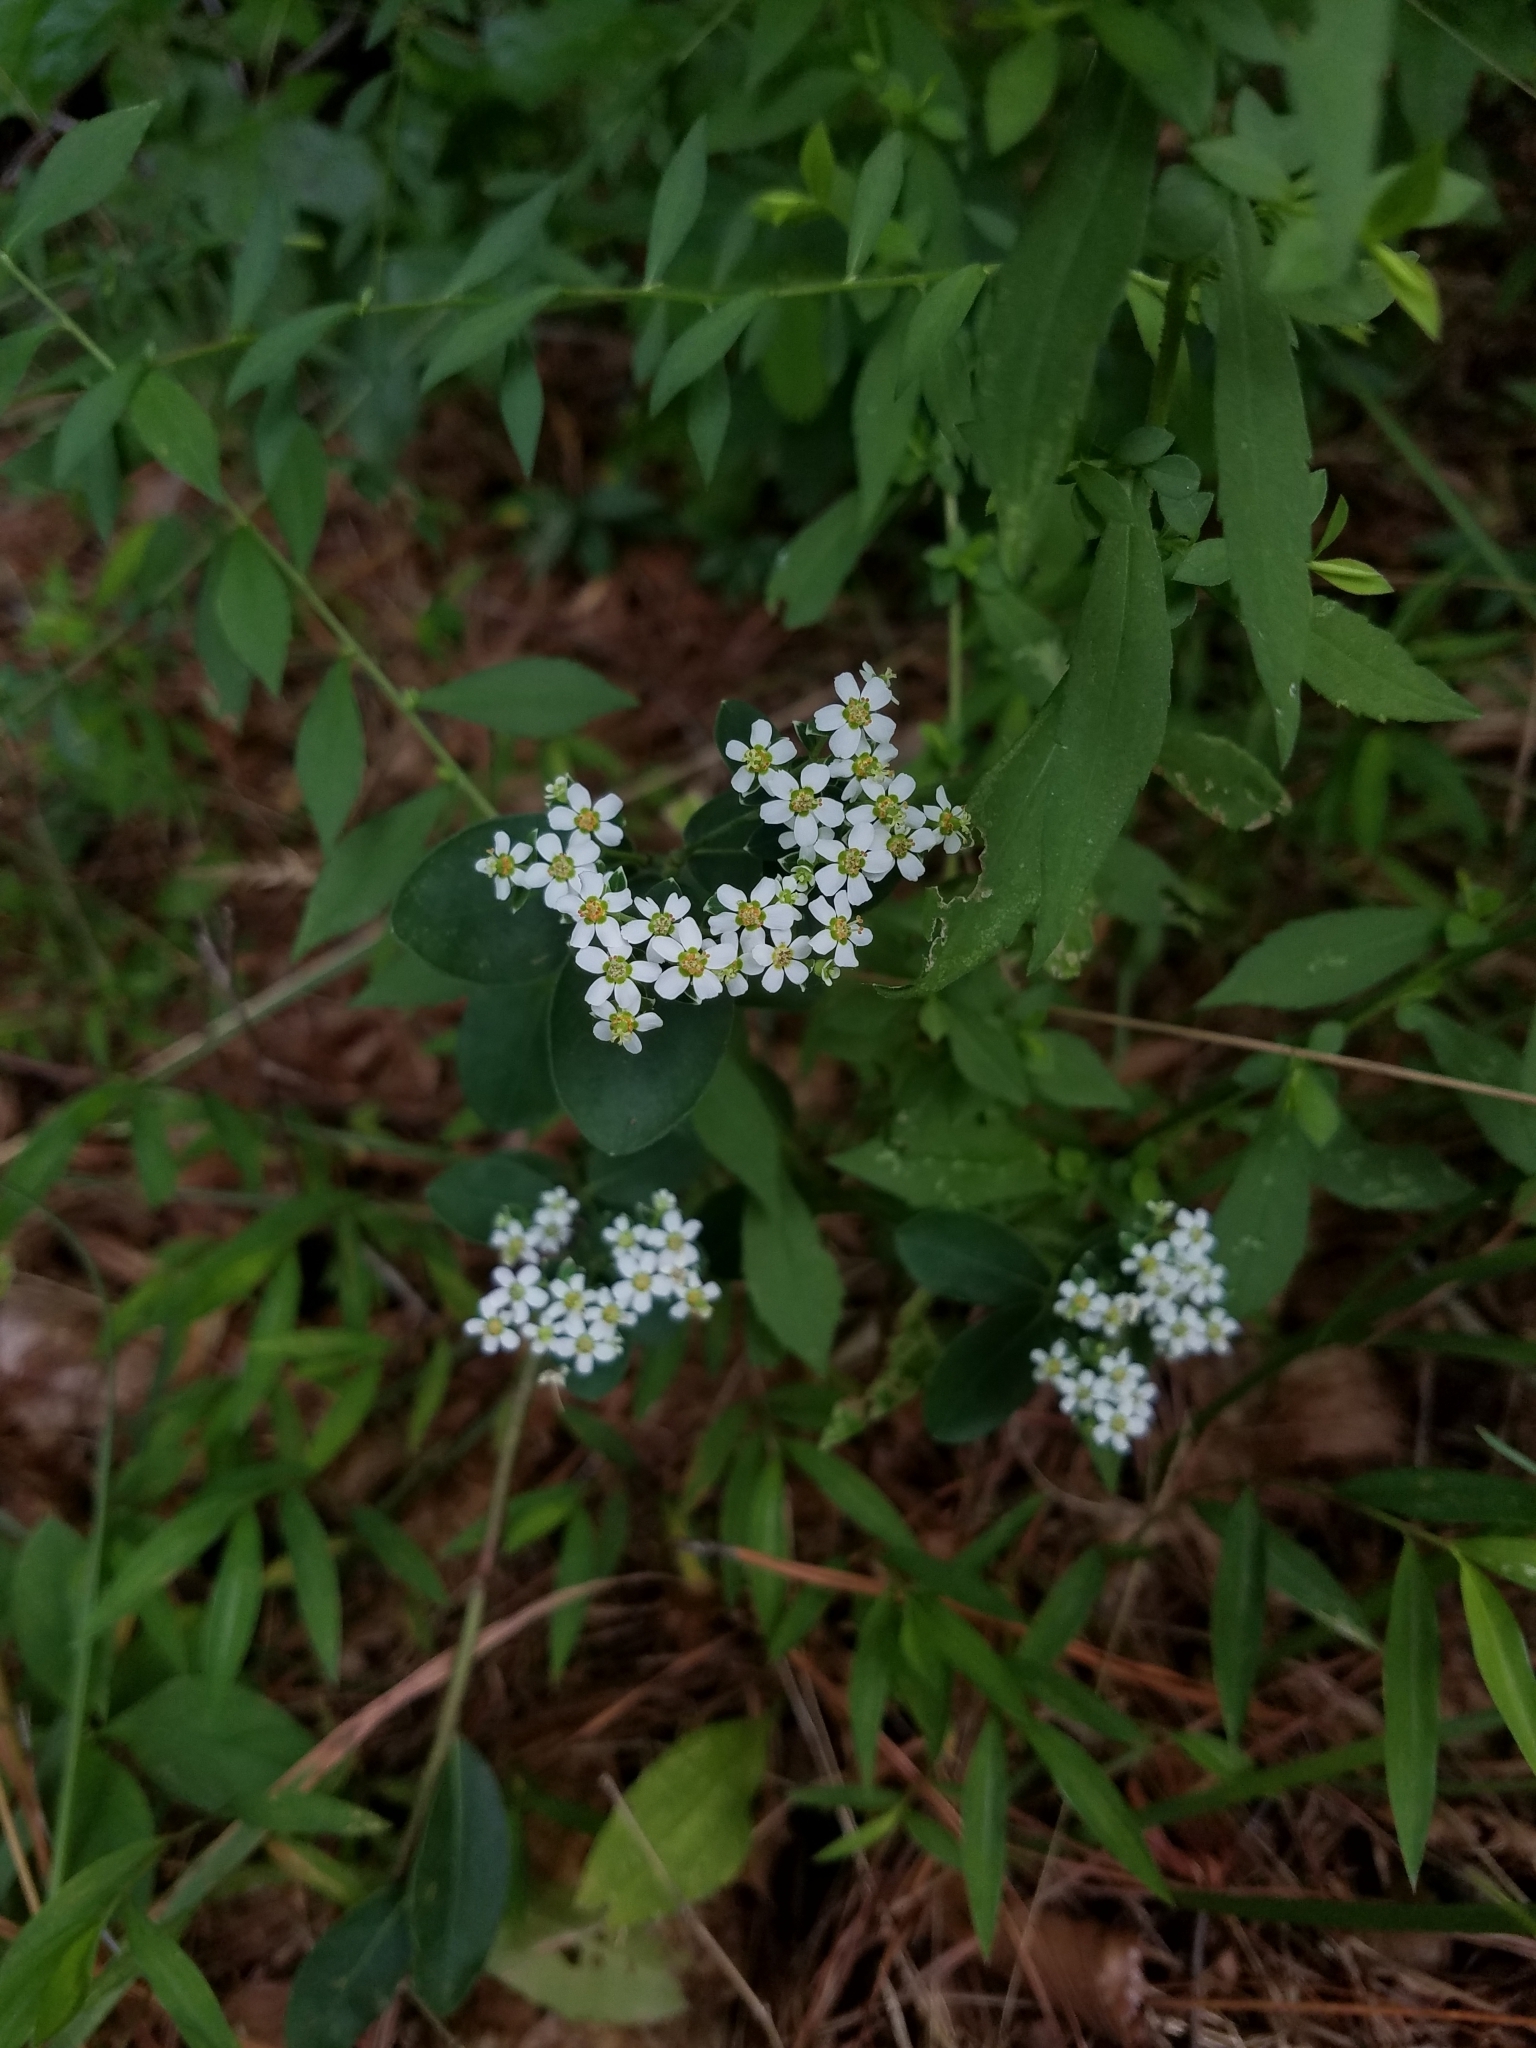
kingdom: Plantae
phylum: Tracheophyta
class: Magnoliopsida
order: Malpighiales
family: Euphorbiaceae
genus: Euphorbia
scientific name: Euphorbia pubentissima
